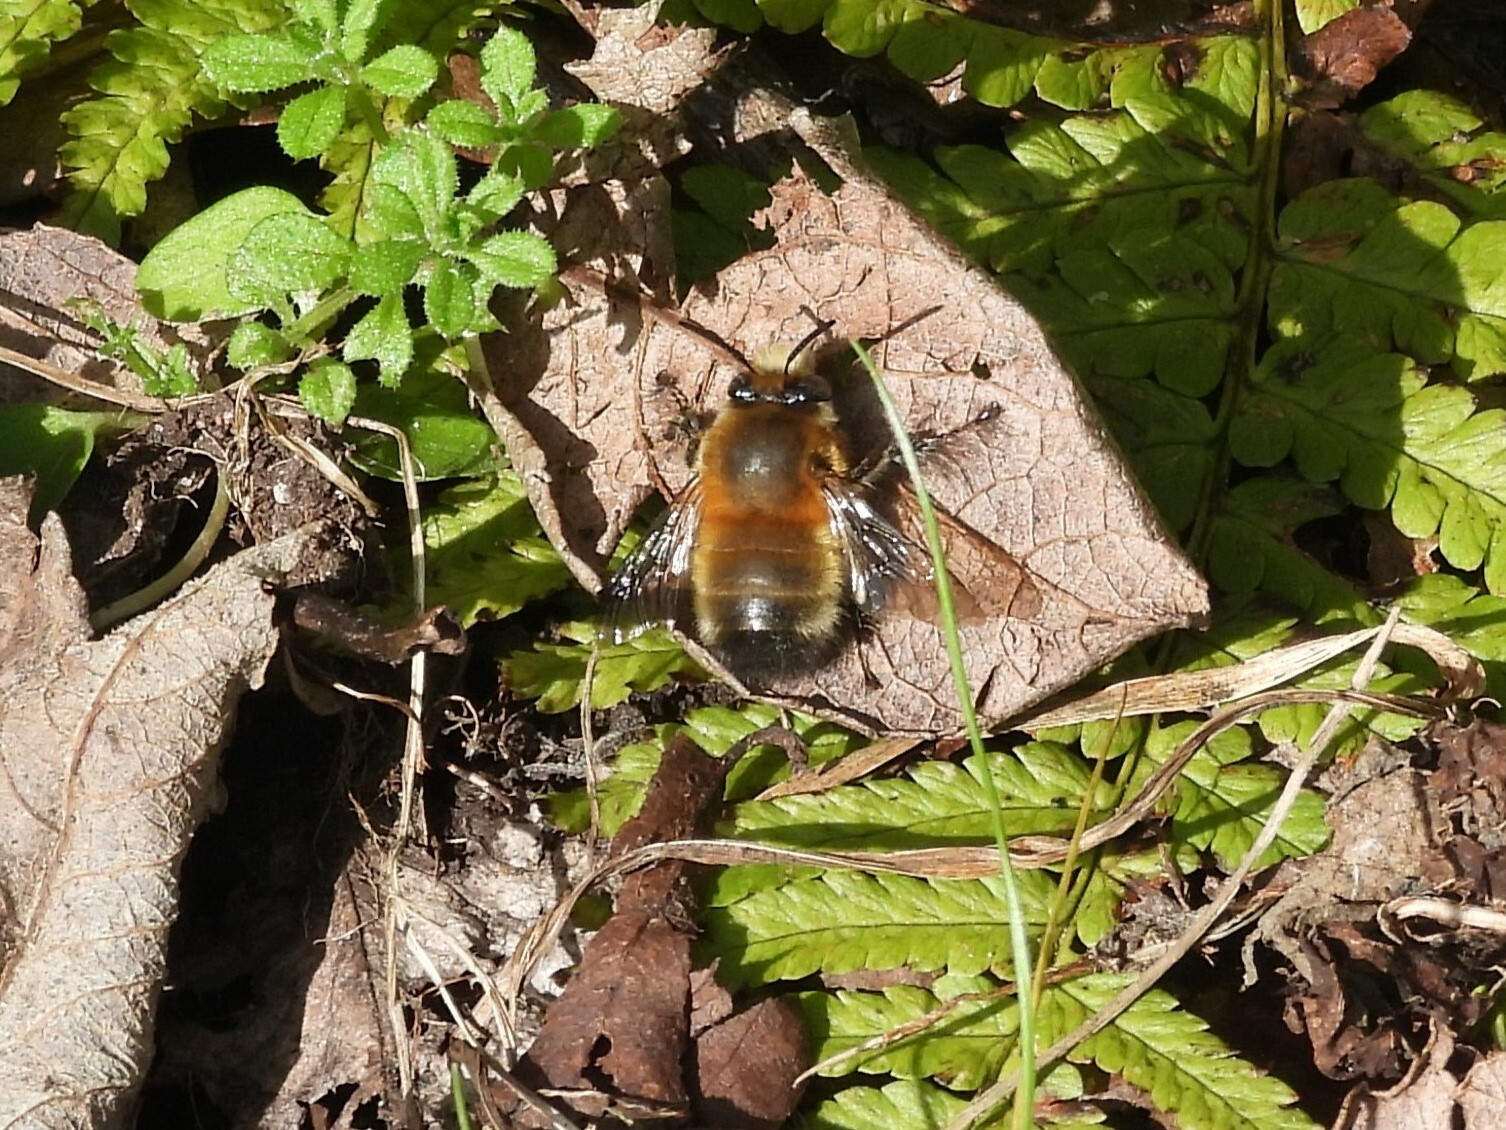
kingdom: Animalia
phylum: Arthropoda
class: Insecta
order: Hymenoptera
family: Apidae
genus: Anthophora
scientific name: Anthophora plumipes
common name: Hairy-footed flower bee
